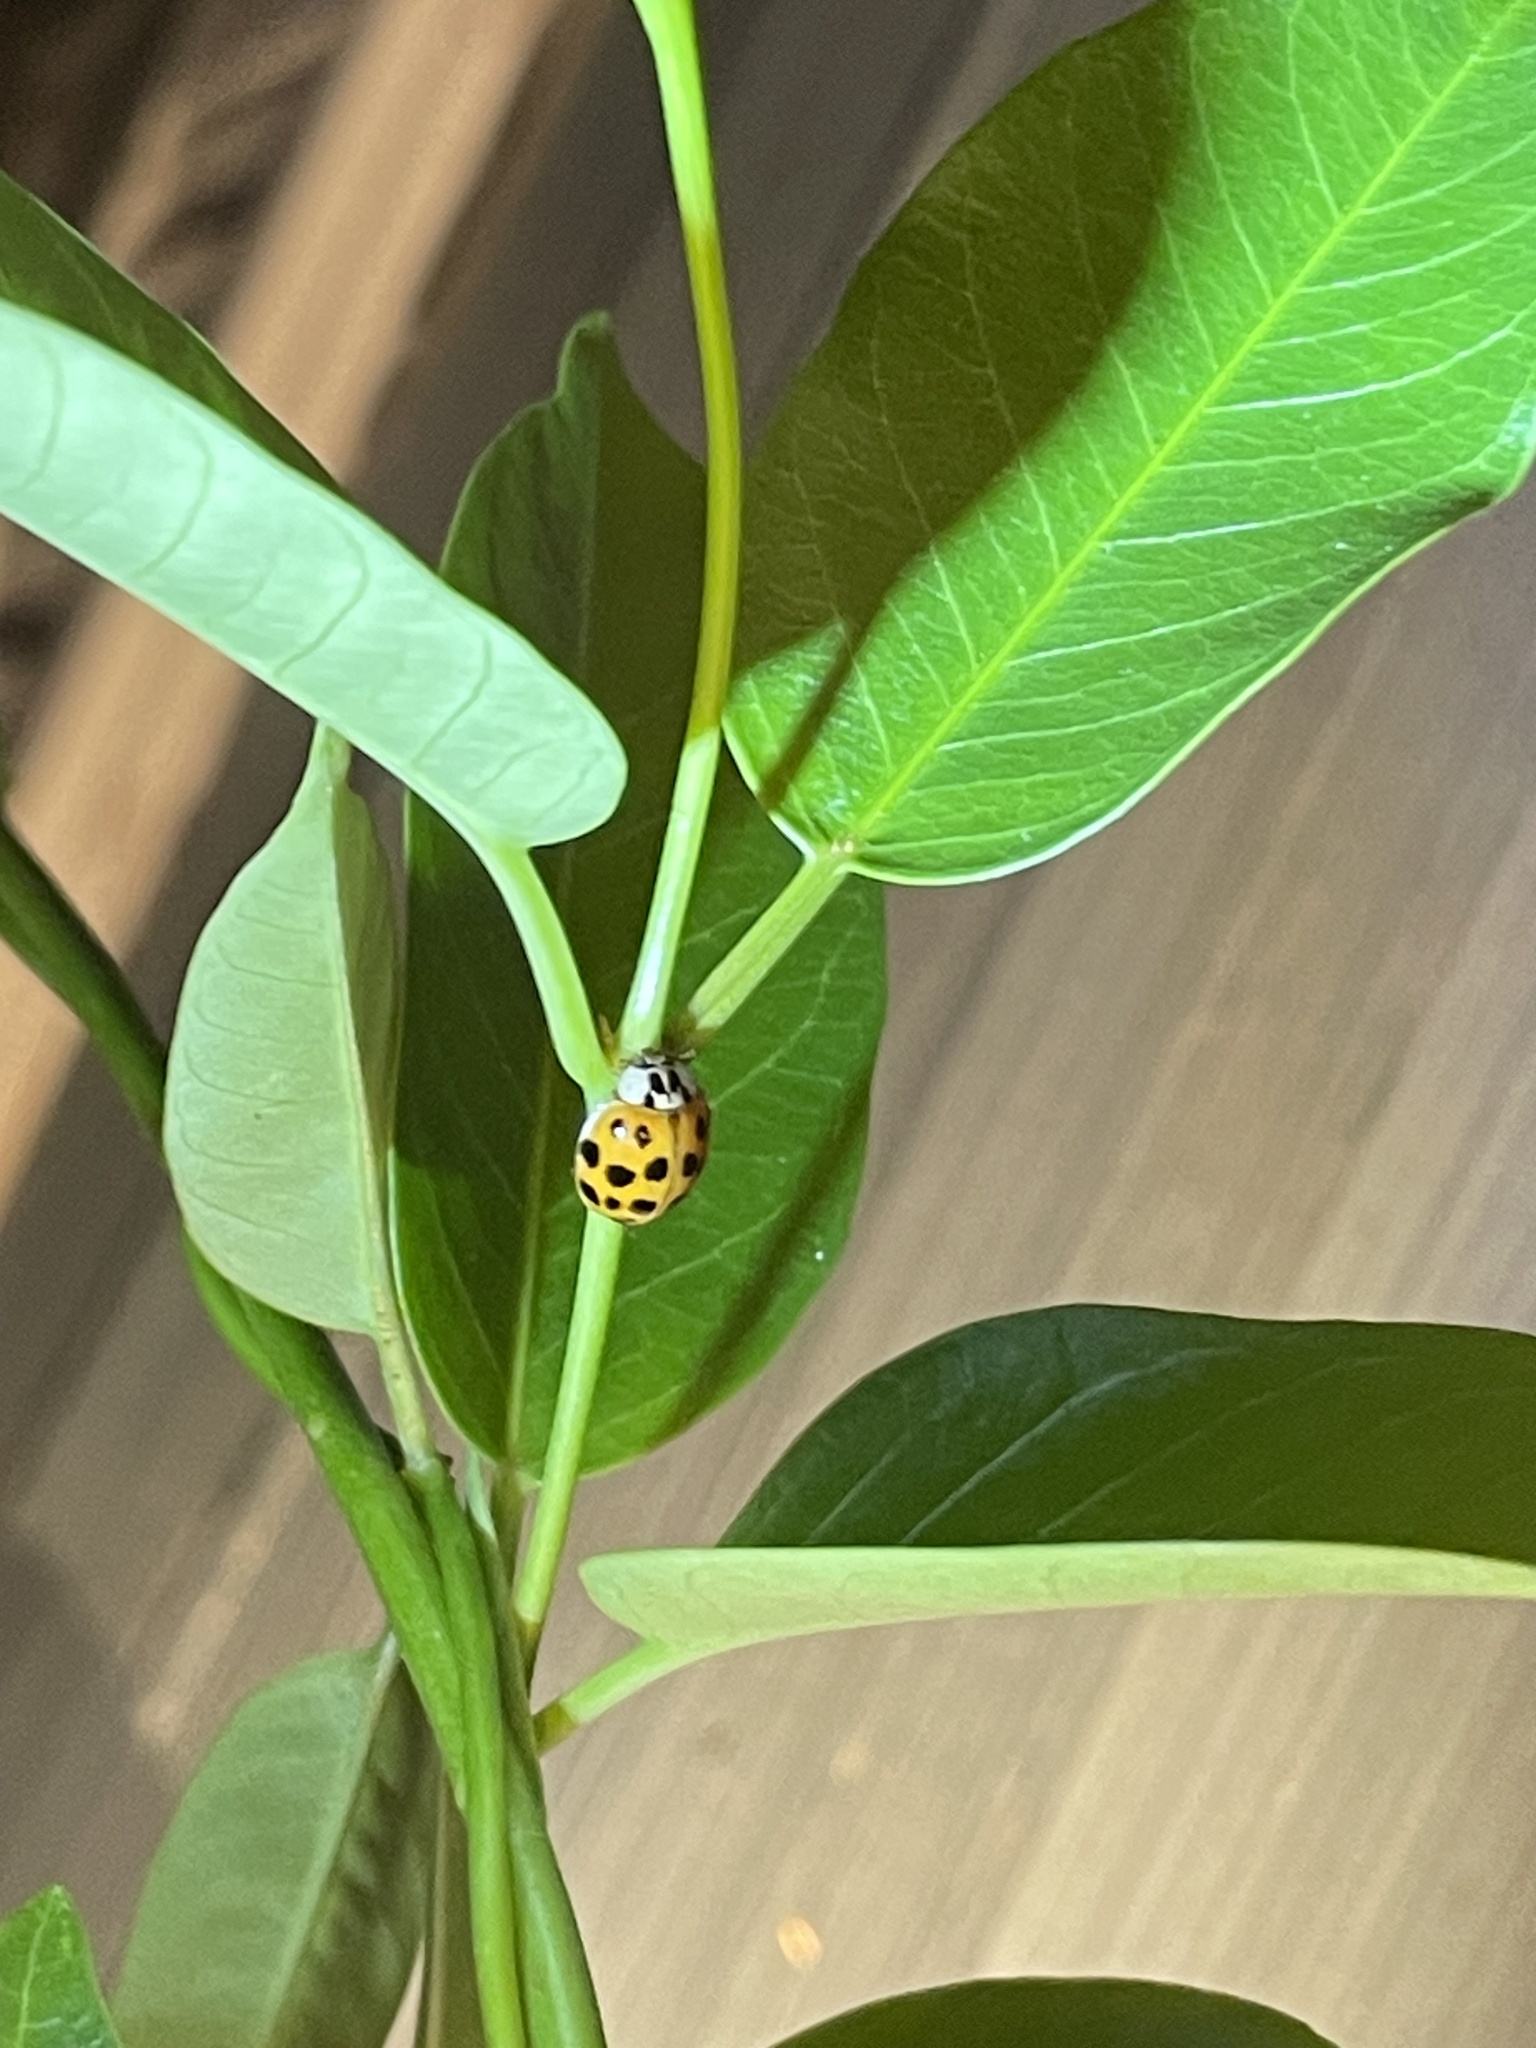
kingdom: Animalia
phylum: Arthropoda
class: Insecta
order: Coleoptera
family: Coccinellidae
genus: Harmonia
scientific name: Harmonia axyridis
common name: Harlequin ladybird
